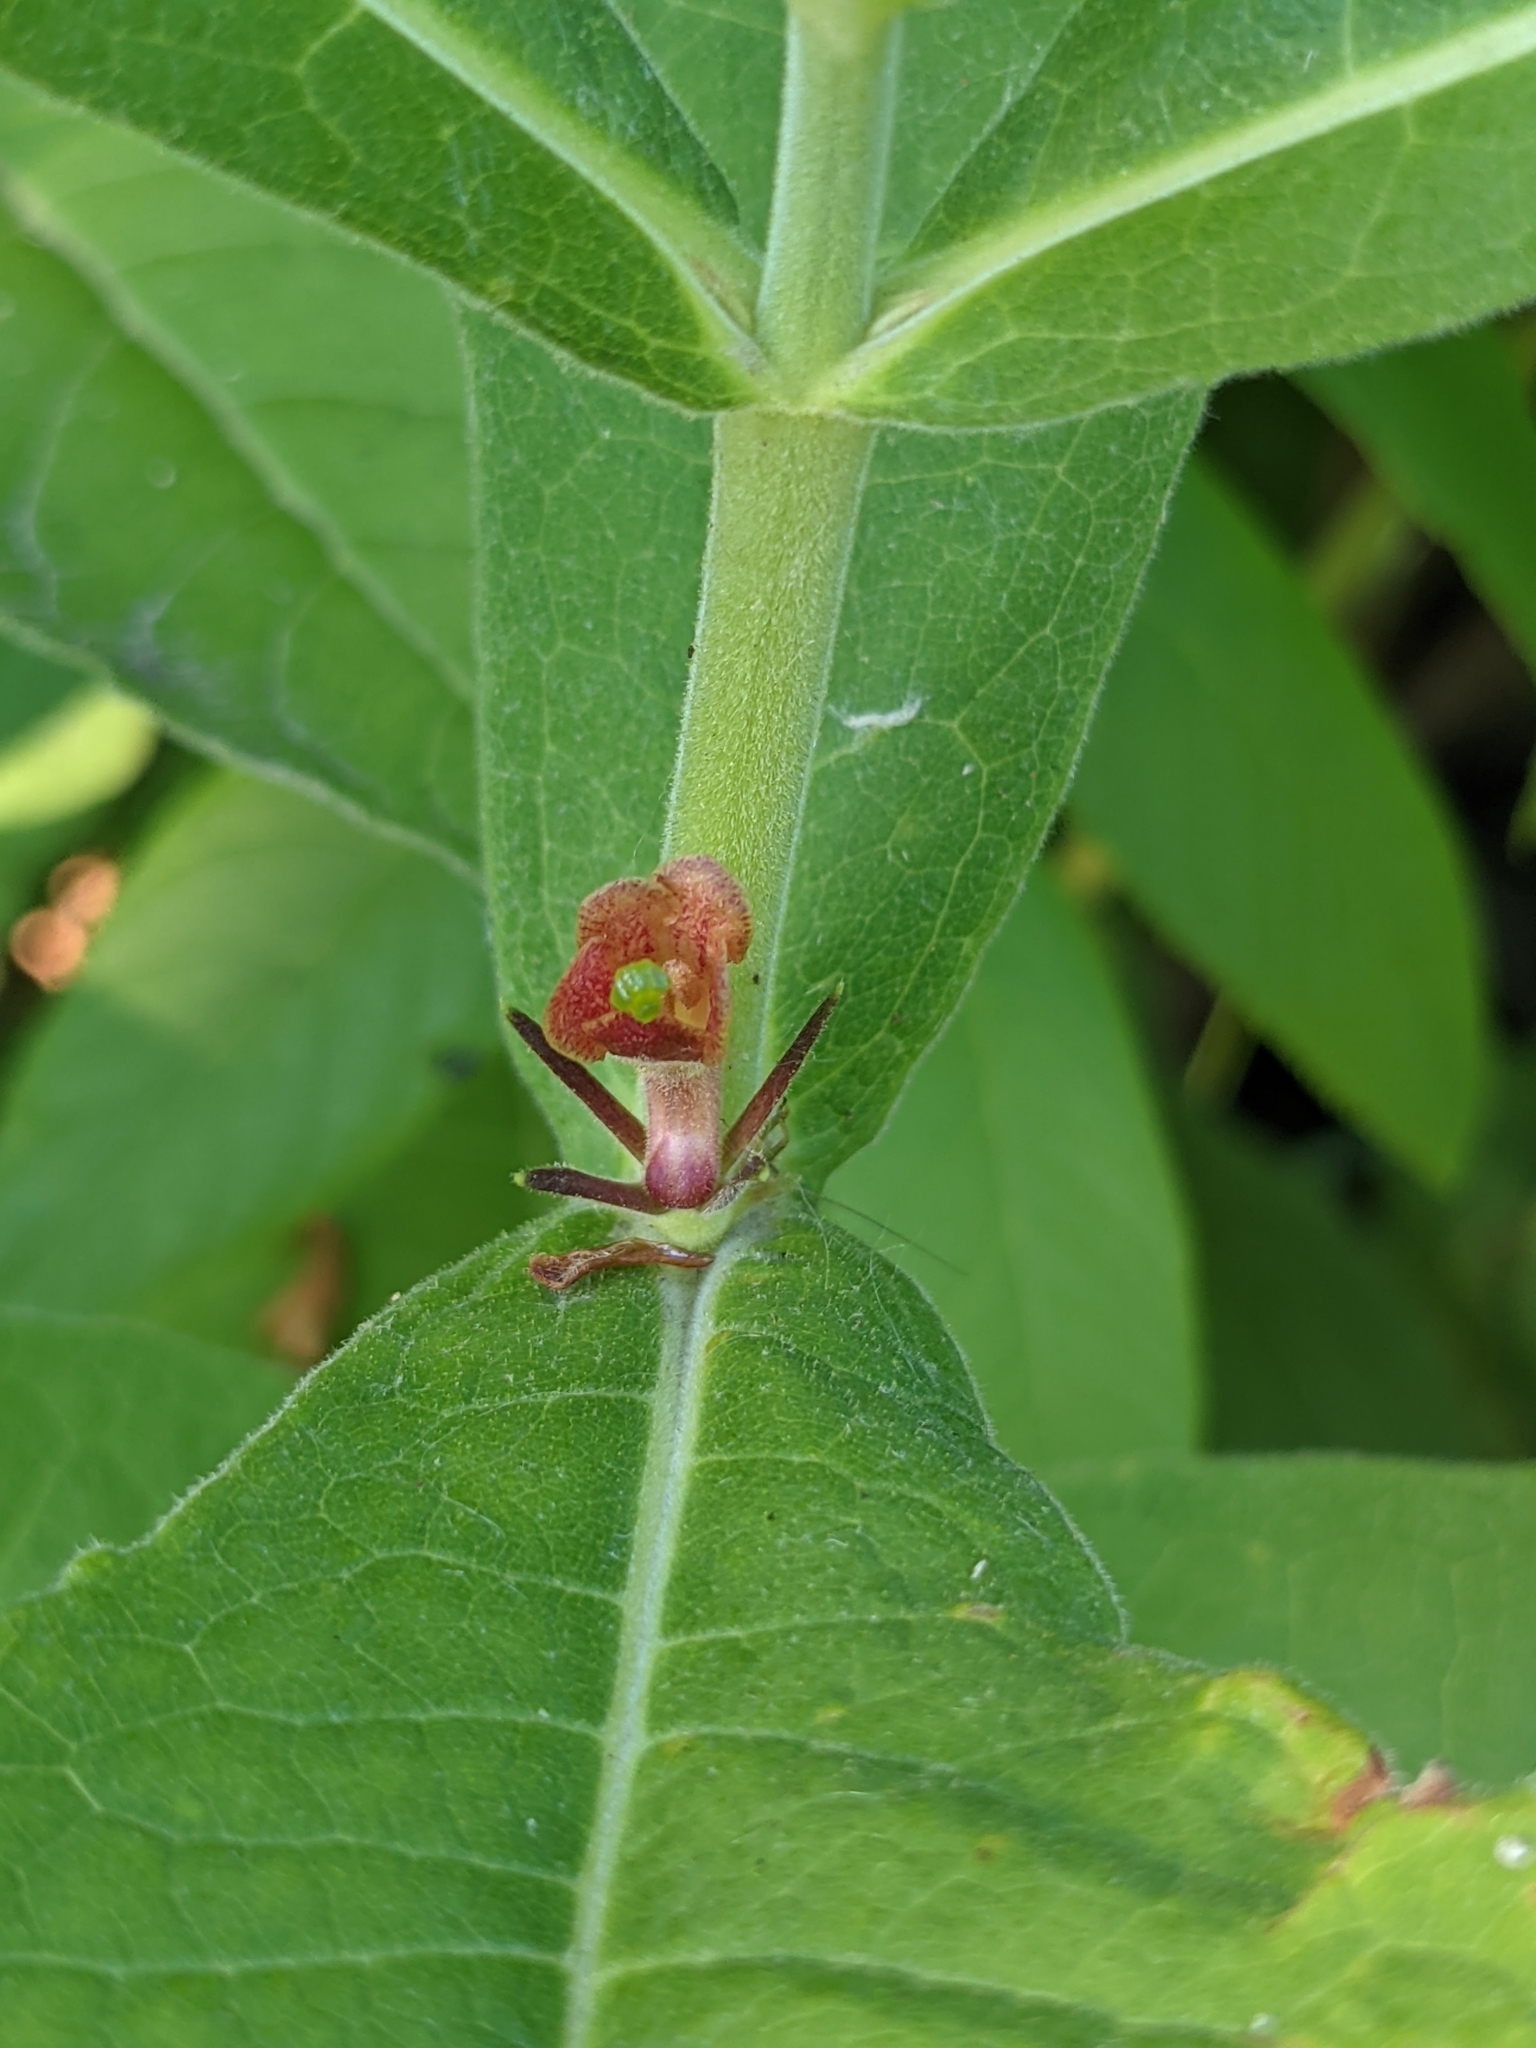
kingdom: Plantae
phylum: Tracheophyta
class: Magnoliopsida
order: Dipsacales
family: Caprifoliaceae
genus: Triosteum
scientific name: Triosteum perfoliatum
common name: Common horse-gentian
